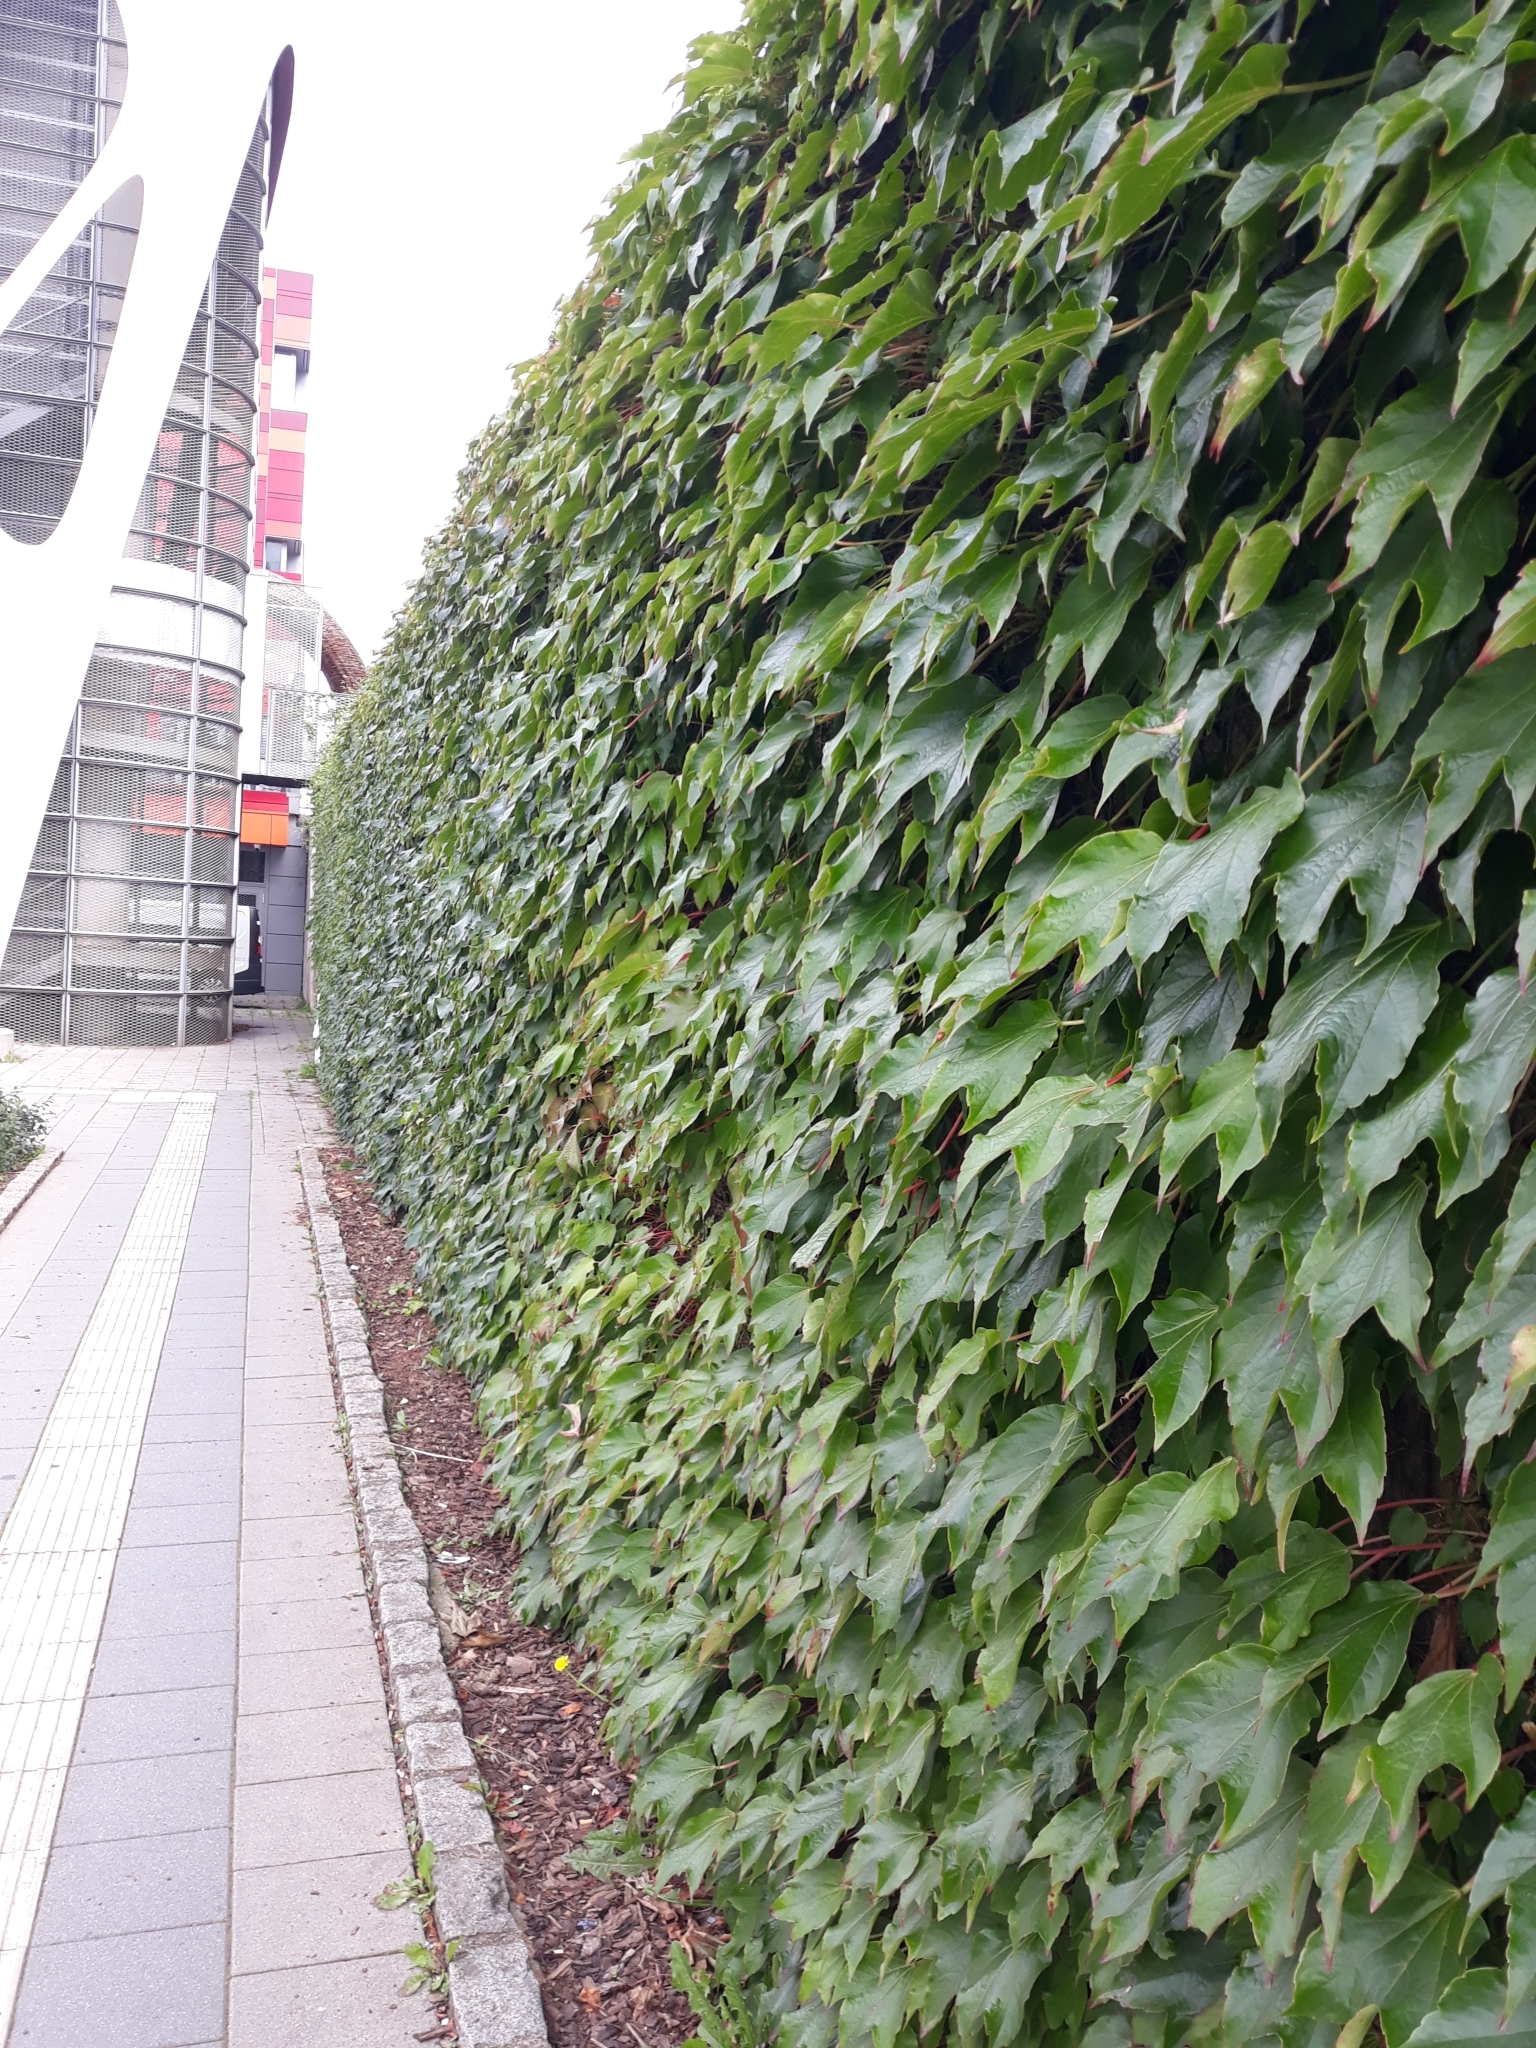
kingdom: Plantae
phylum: Tracheophyta
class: Magnoliopsida
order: Vitales
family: Vitaceae
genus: Parthenocissus
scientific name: Parthenocissus tricuspidata
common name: Boston ivy
